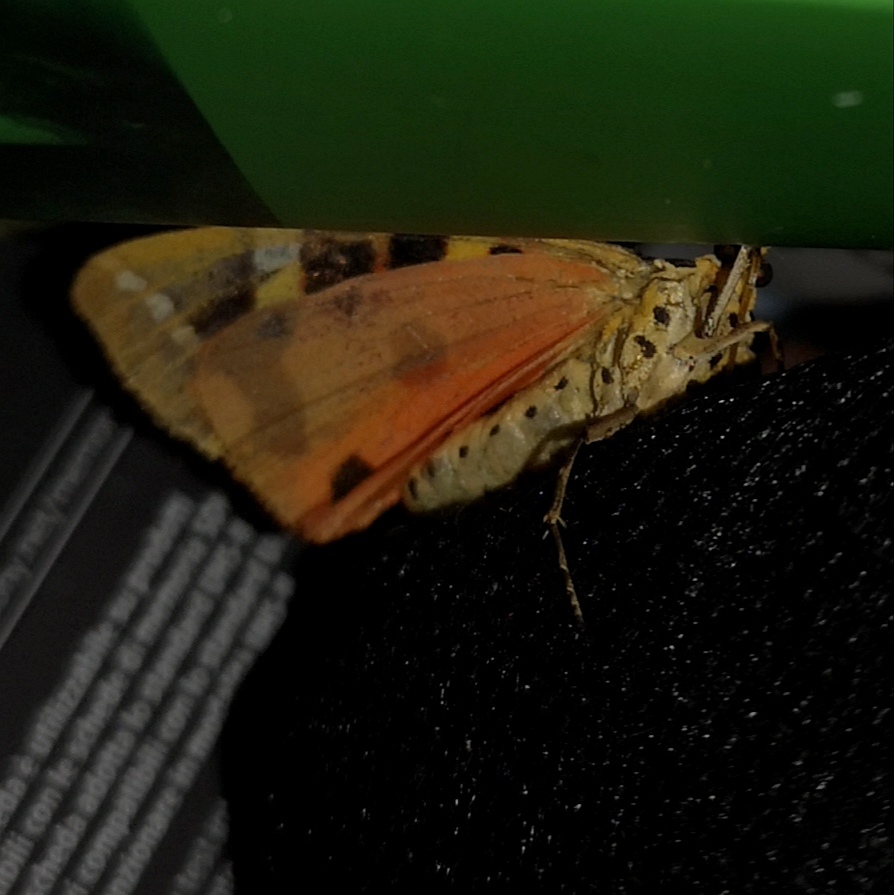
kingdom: Animalia
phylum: Arthropoda
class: Insecta
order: Lepidoptera
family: Erebidae
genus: Euplagia
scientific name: Euplagia quadripunctaria
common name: Jersey tiger
